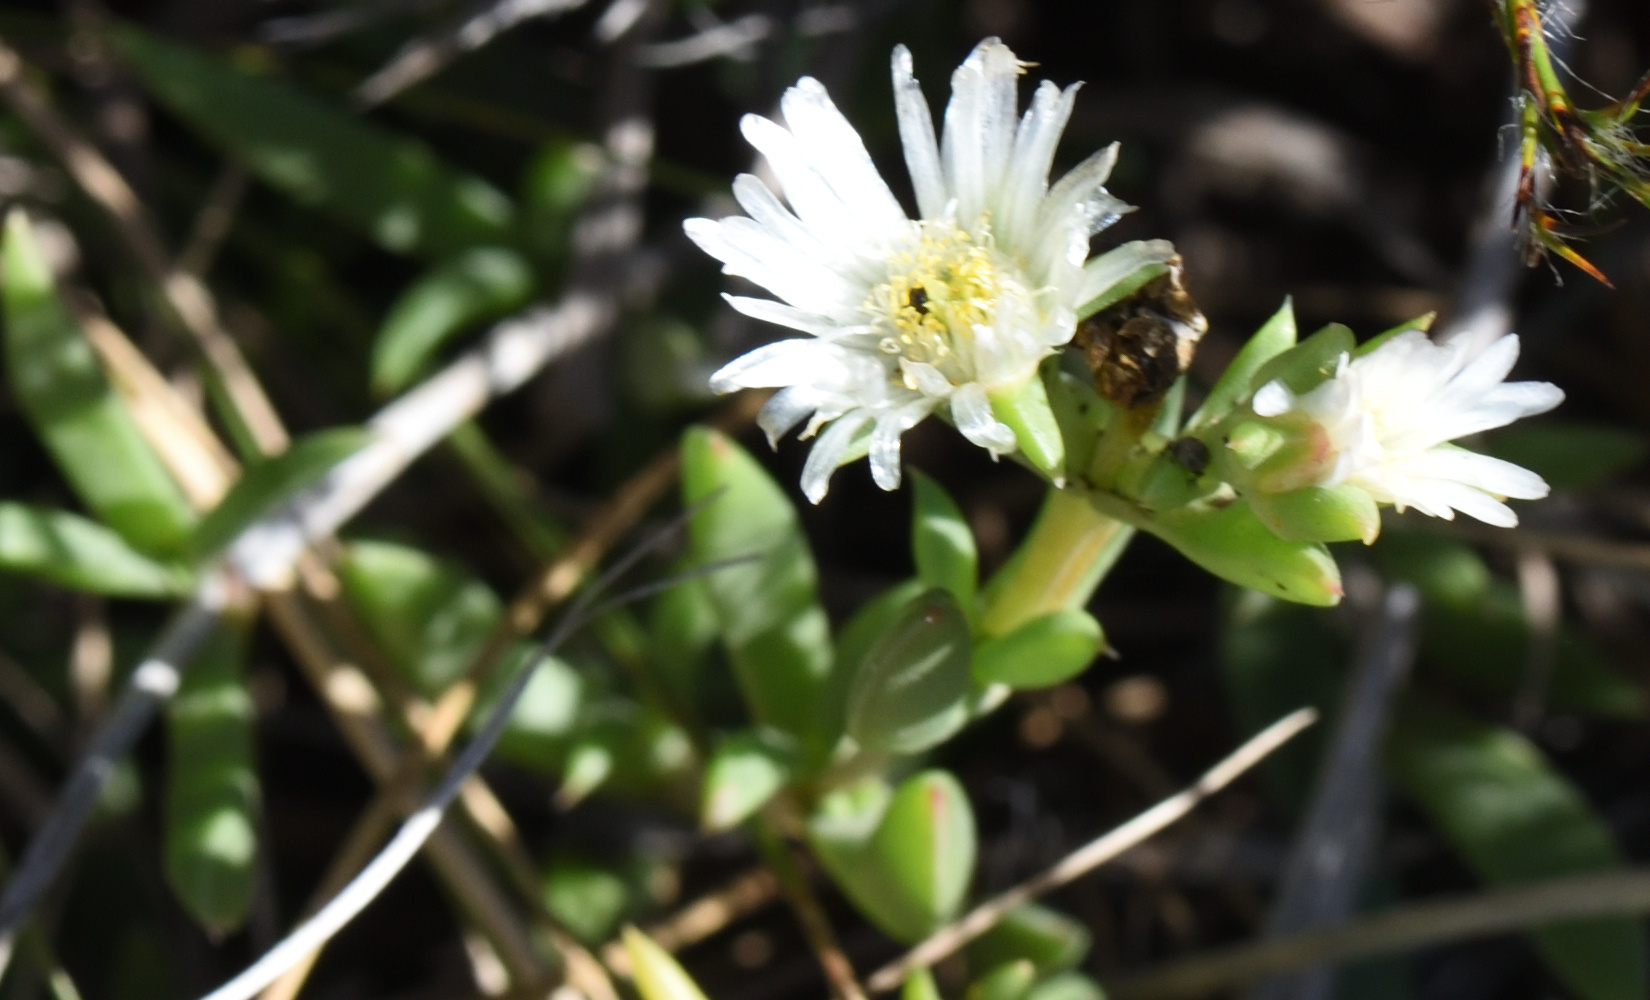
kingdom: Plantae
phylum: Tracheophyta
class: Magnoliopsida
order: Caryophyllales
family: Aizoaceae
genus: Delosperma
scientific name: Delosperma uncinatum
